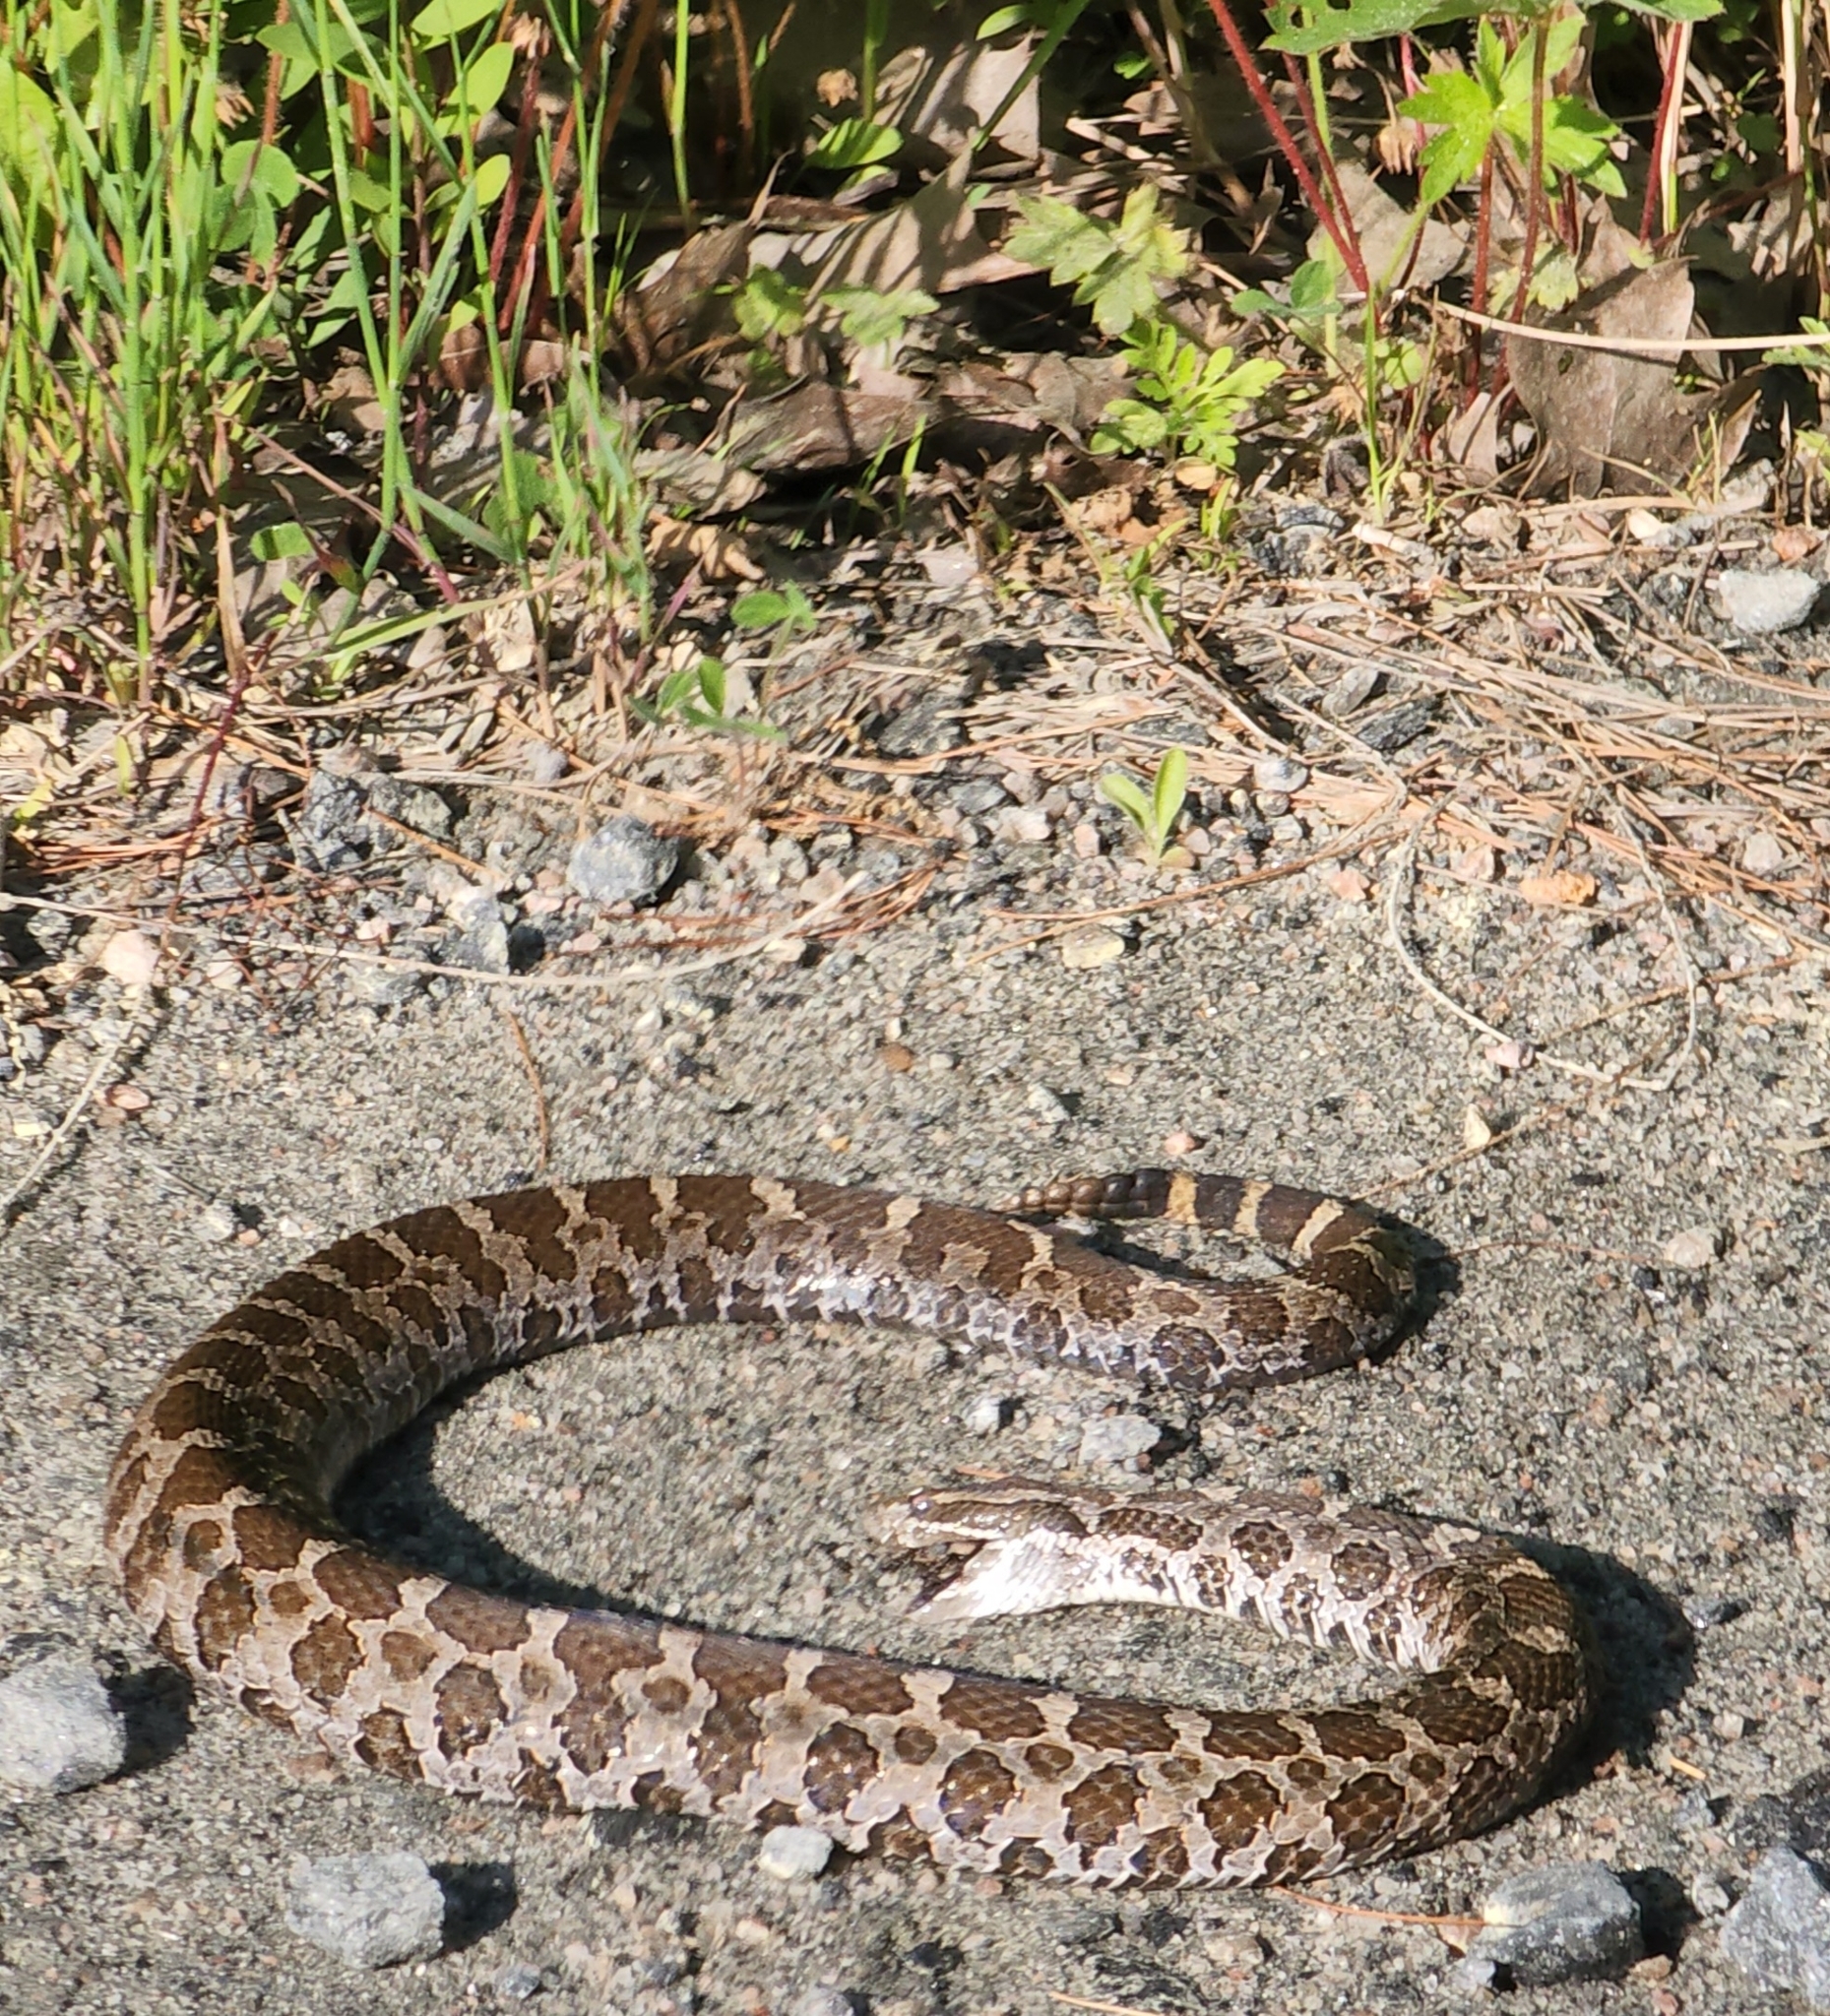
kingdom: Animalia
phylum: Chordata
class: Squamata
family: Viperidae
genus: Sistrurus
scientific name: Sistrurus catenatus
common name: Massasauga
